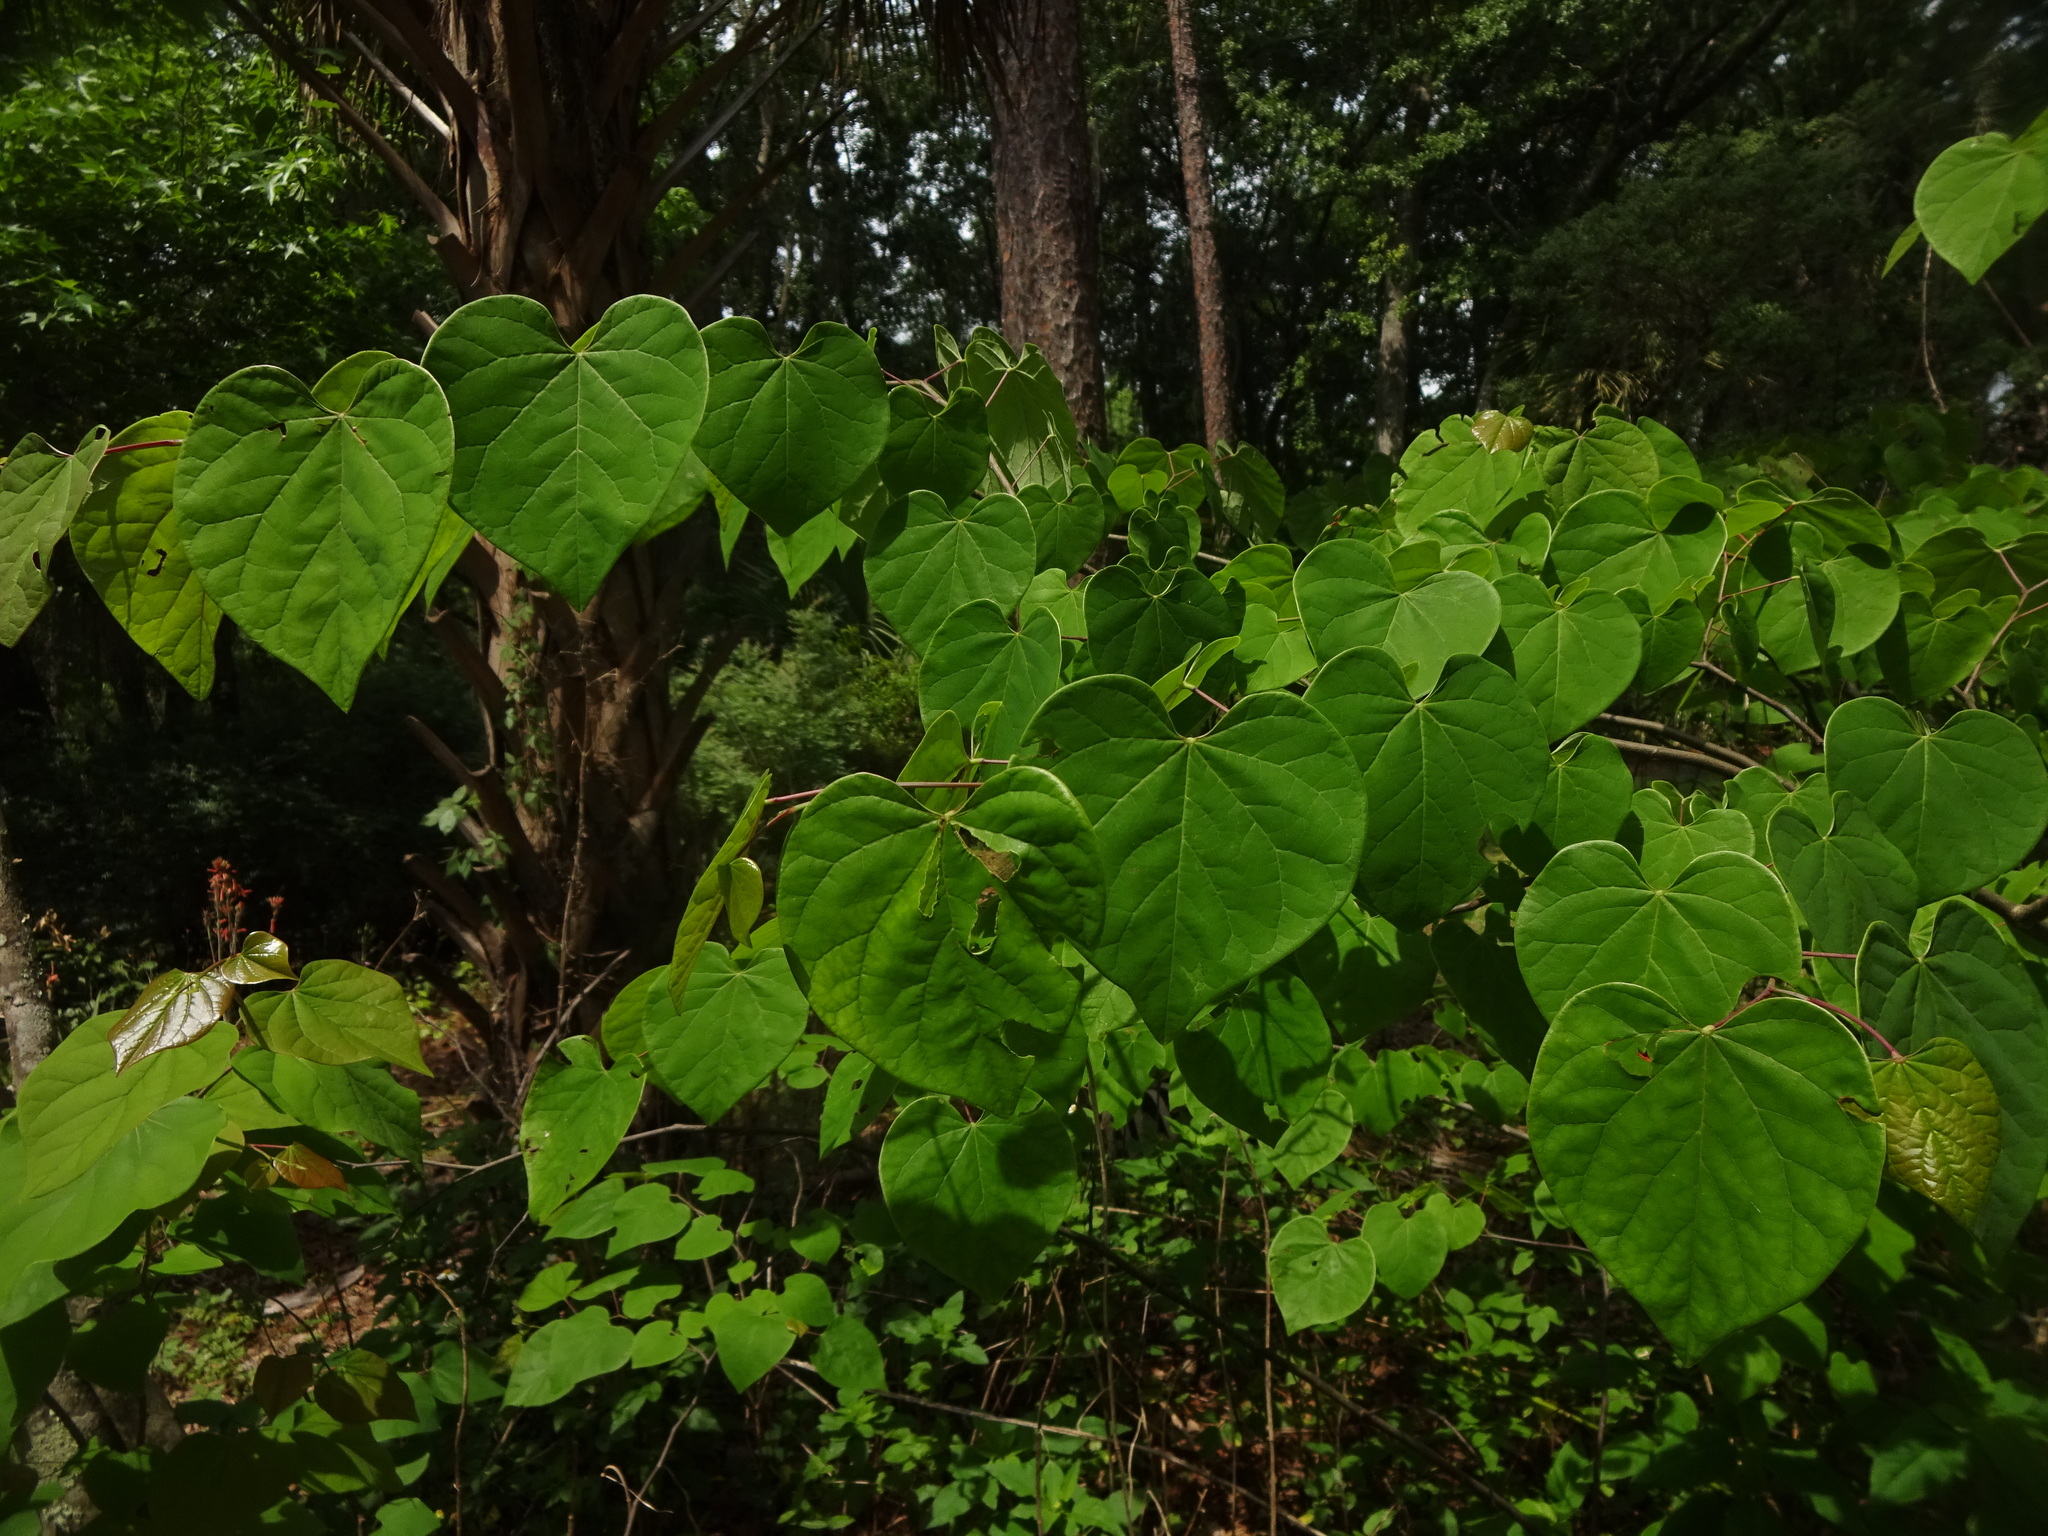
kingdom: Plantae
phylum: Tracheophyta
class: Magnoliopsida
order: Fabales
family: Fabaceae
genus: Cercis
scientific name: Cercis canadensis
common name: Eastern redbud
